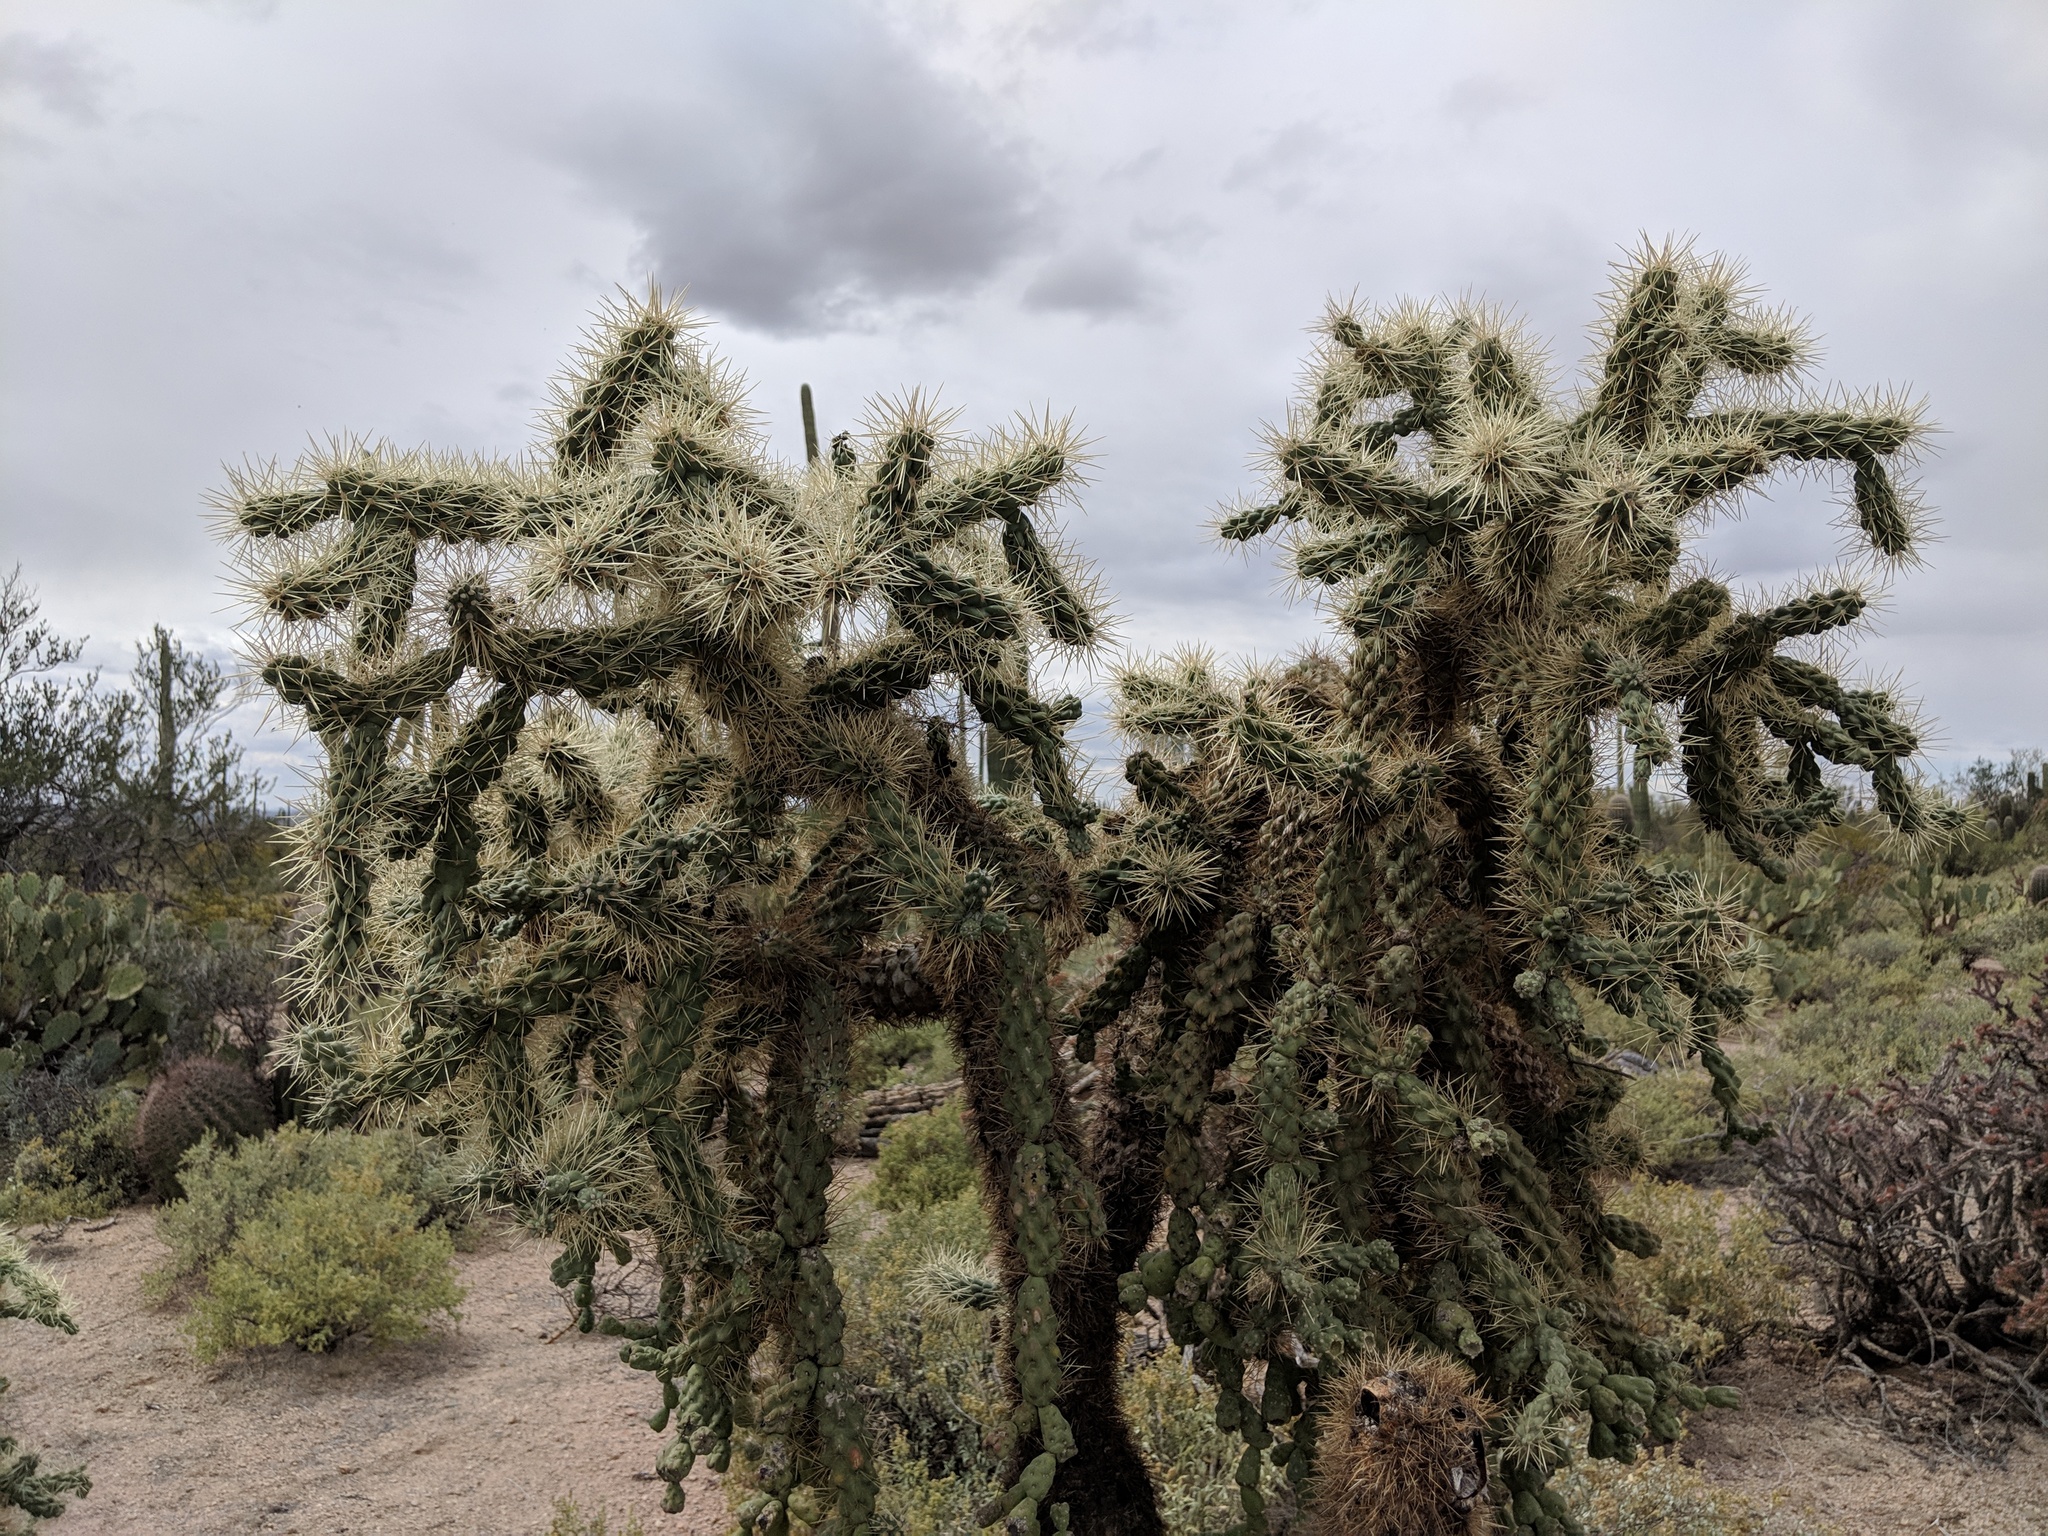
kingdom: Plantae
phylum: Tracheophyta
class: Magnoliopsida
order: Caryophyllales
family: Cactaceae
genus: Cylindropuntia
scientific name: Cylindropuntia fulgida
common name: Jumping cholla
